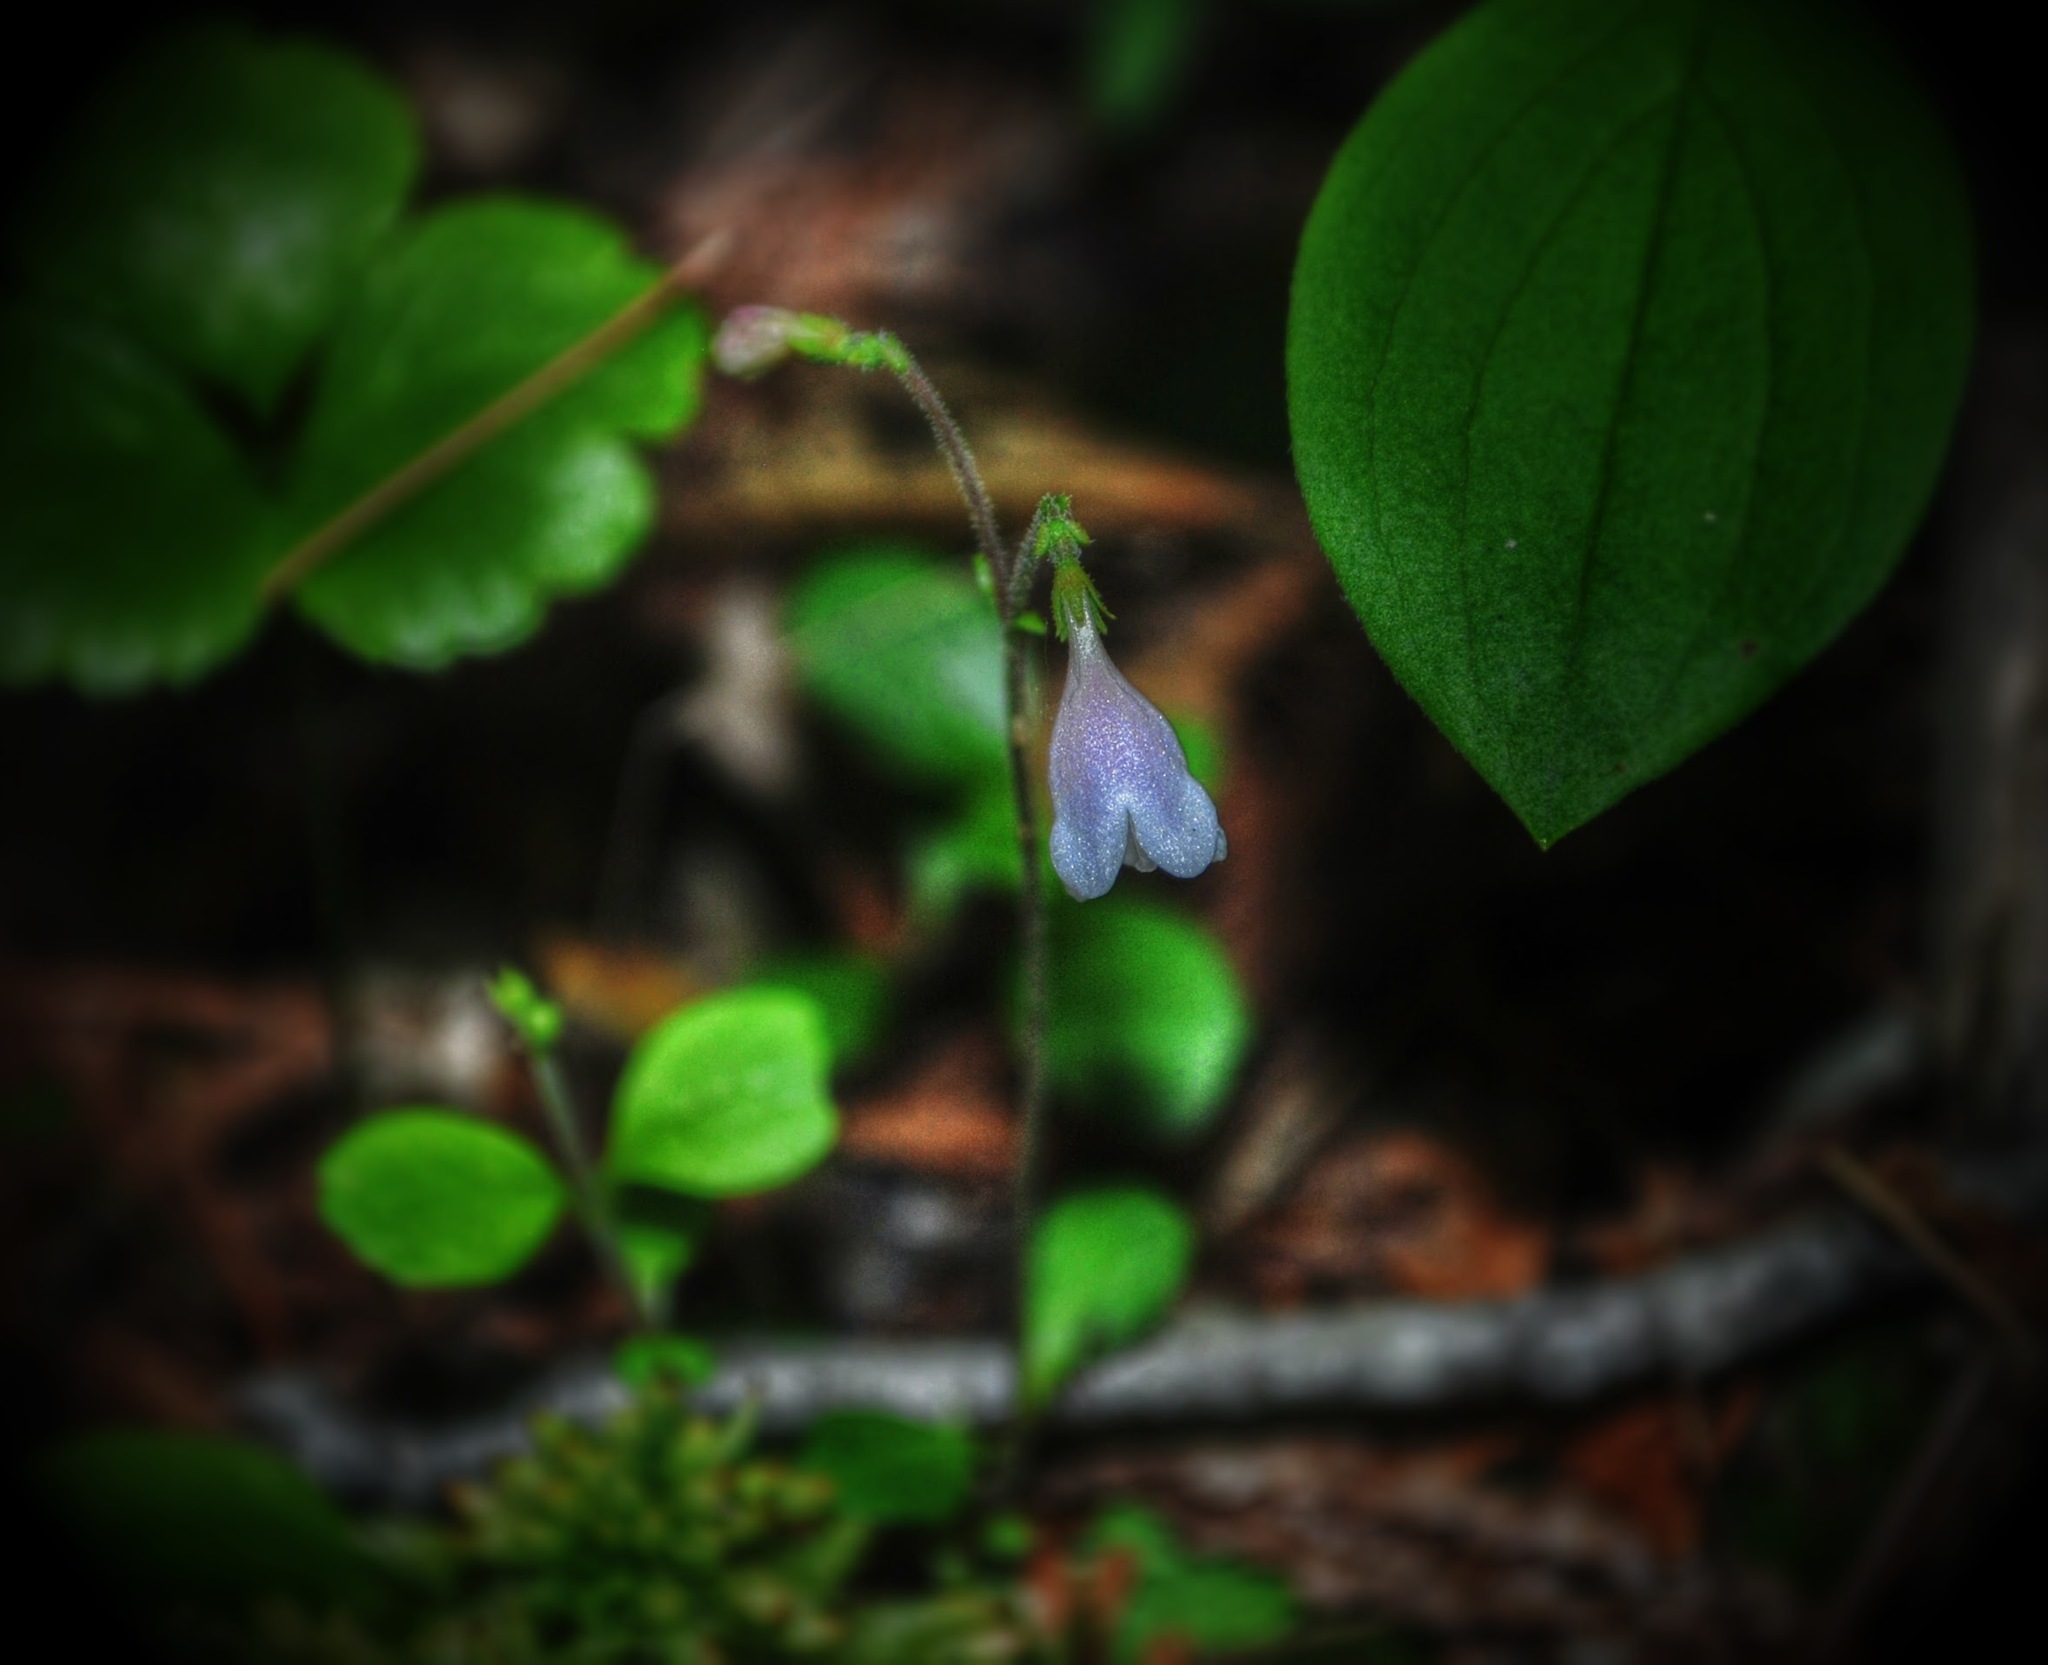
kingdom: Plantae
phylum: Tracheophyta
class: Magnoliopsida
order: Dipsacales
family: Caprifoliaceae
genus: Linnaea
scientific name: Linnaea borealis
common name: Twinflower
